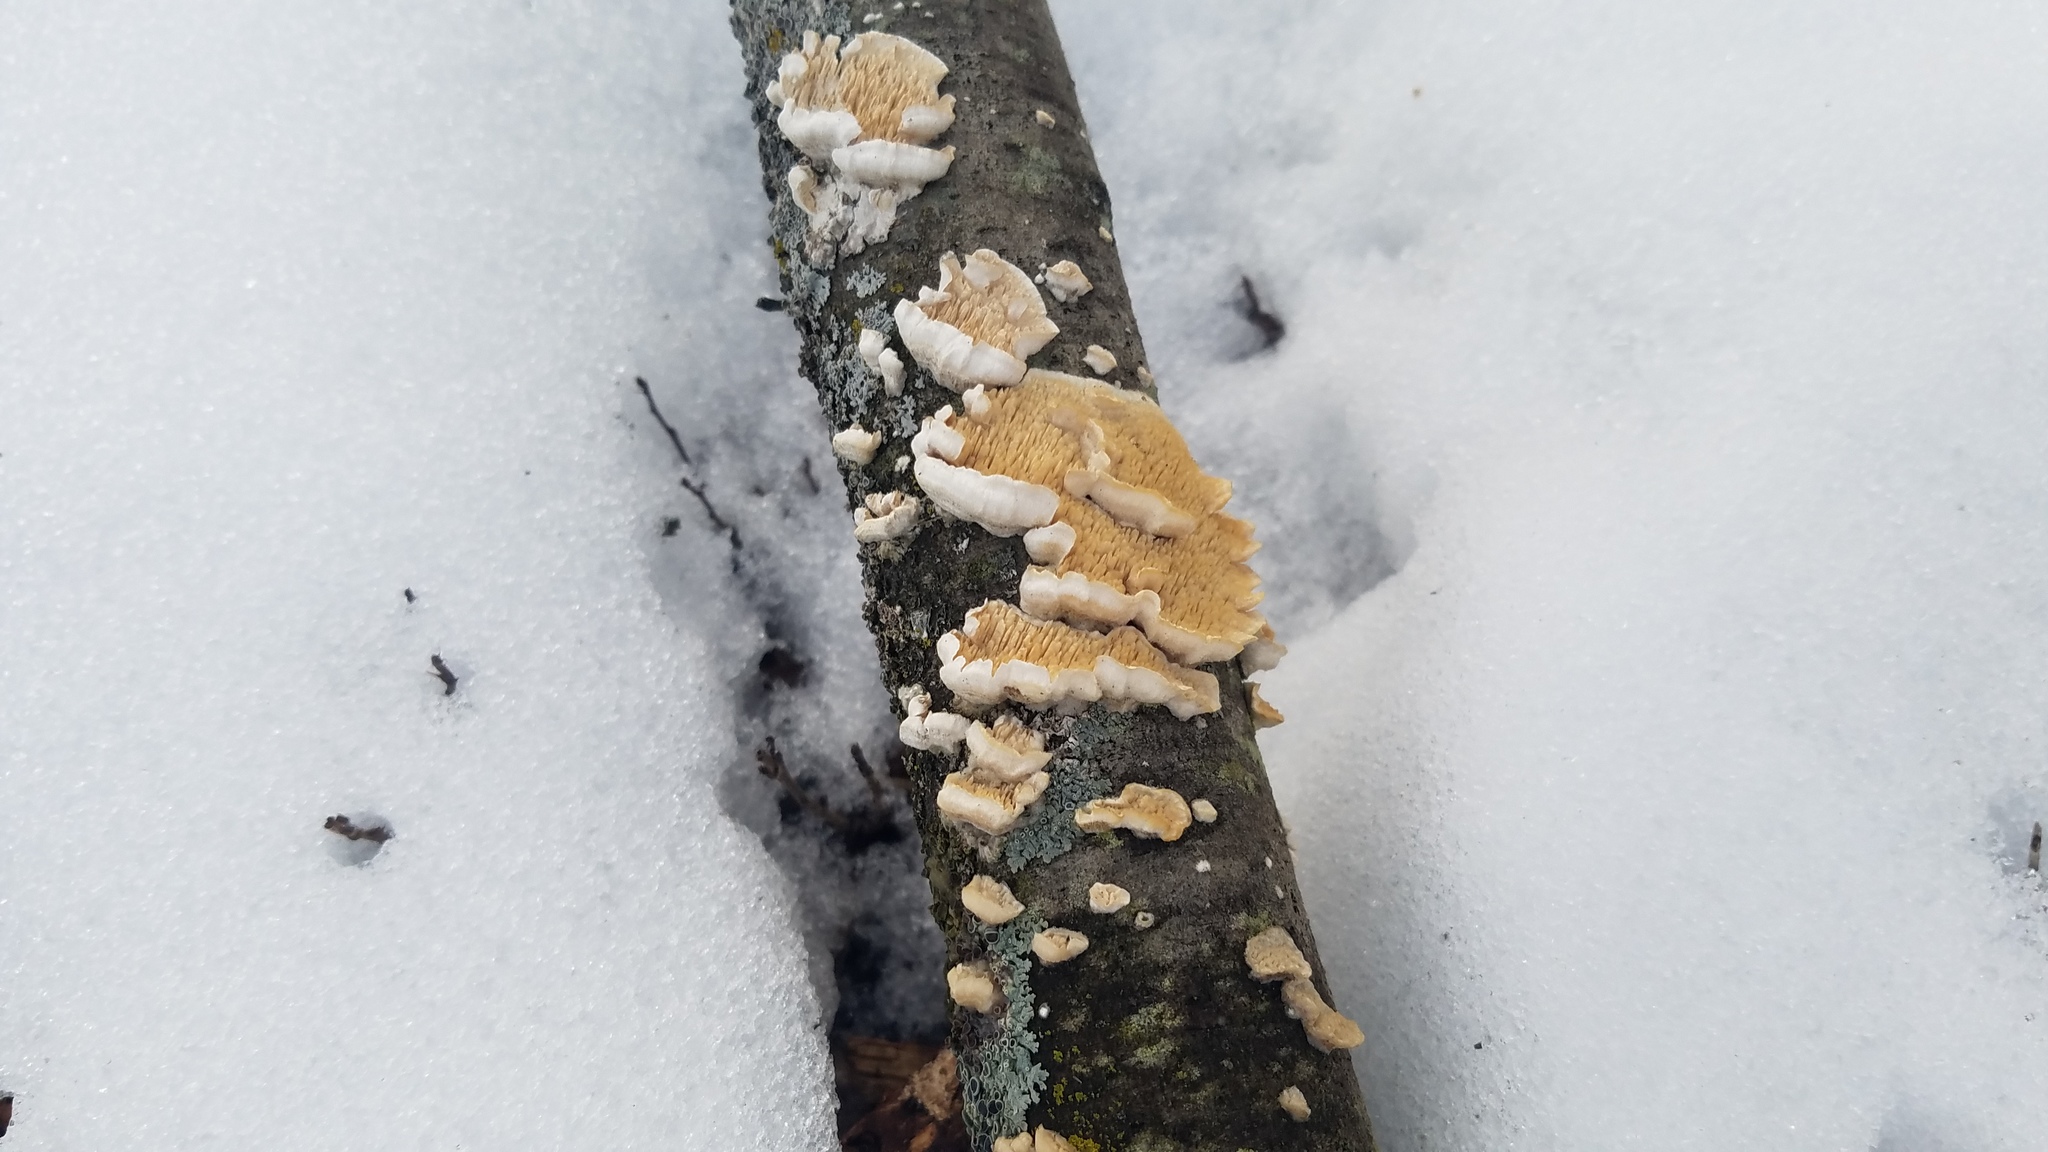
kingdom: Fungi
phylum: Basidiomycota
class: Agaricomycetes
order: Polyporales
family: Irpicaceae
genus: Irpex
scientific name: Irpex lacteus
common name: Milk-white toothed polypore
